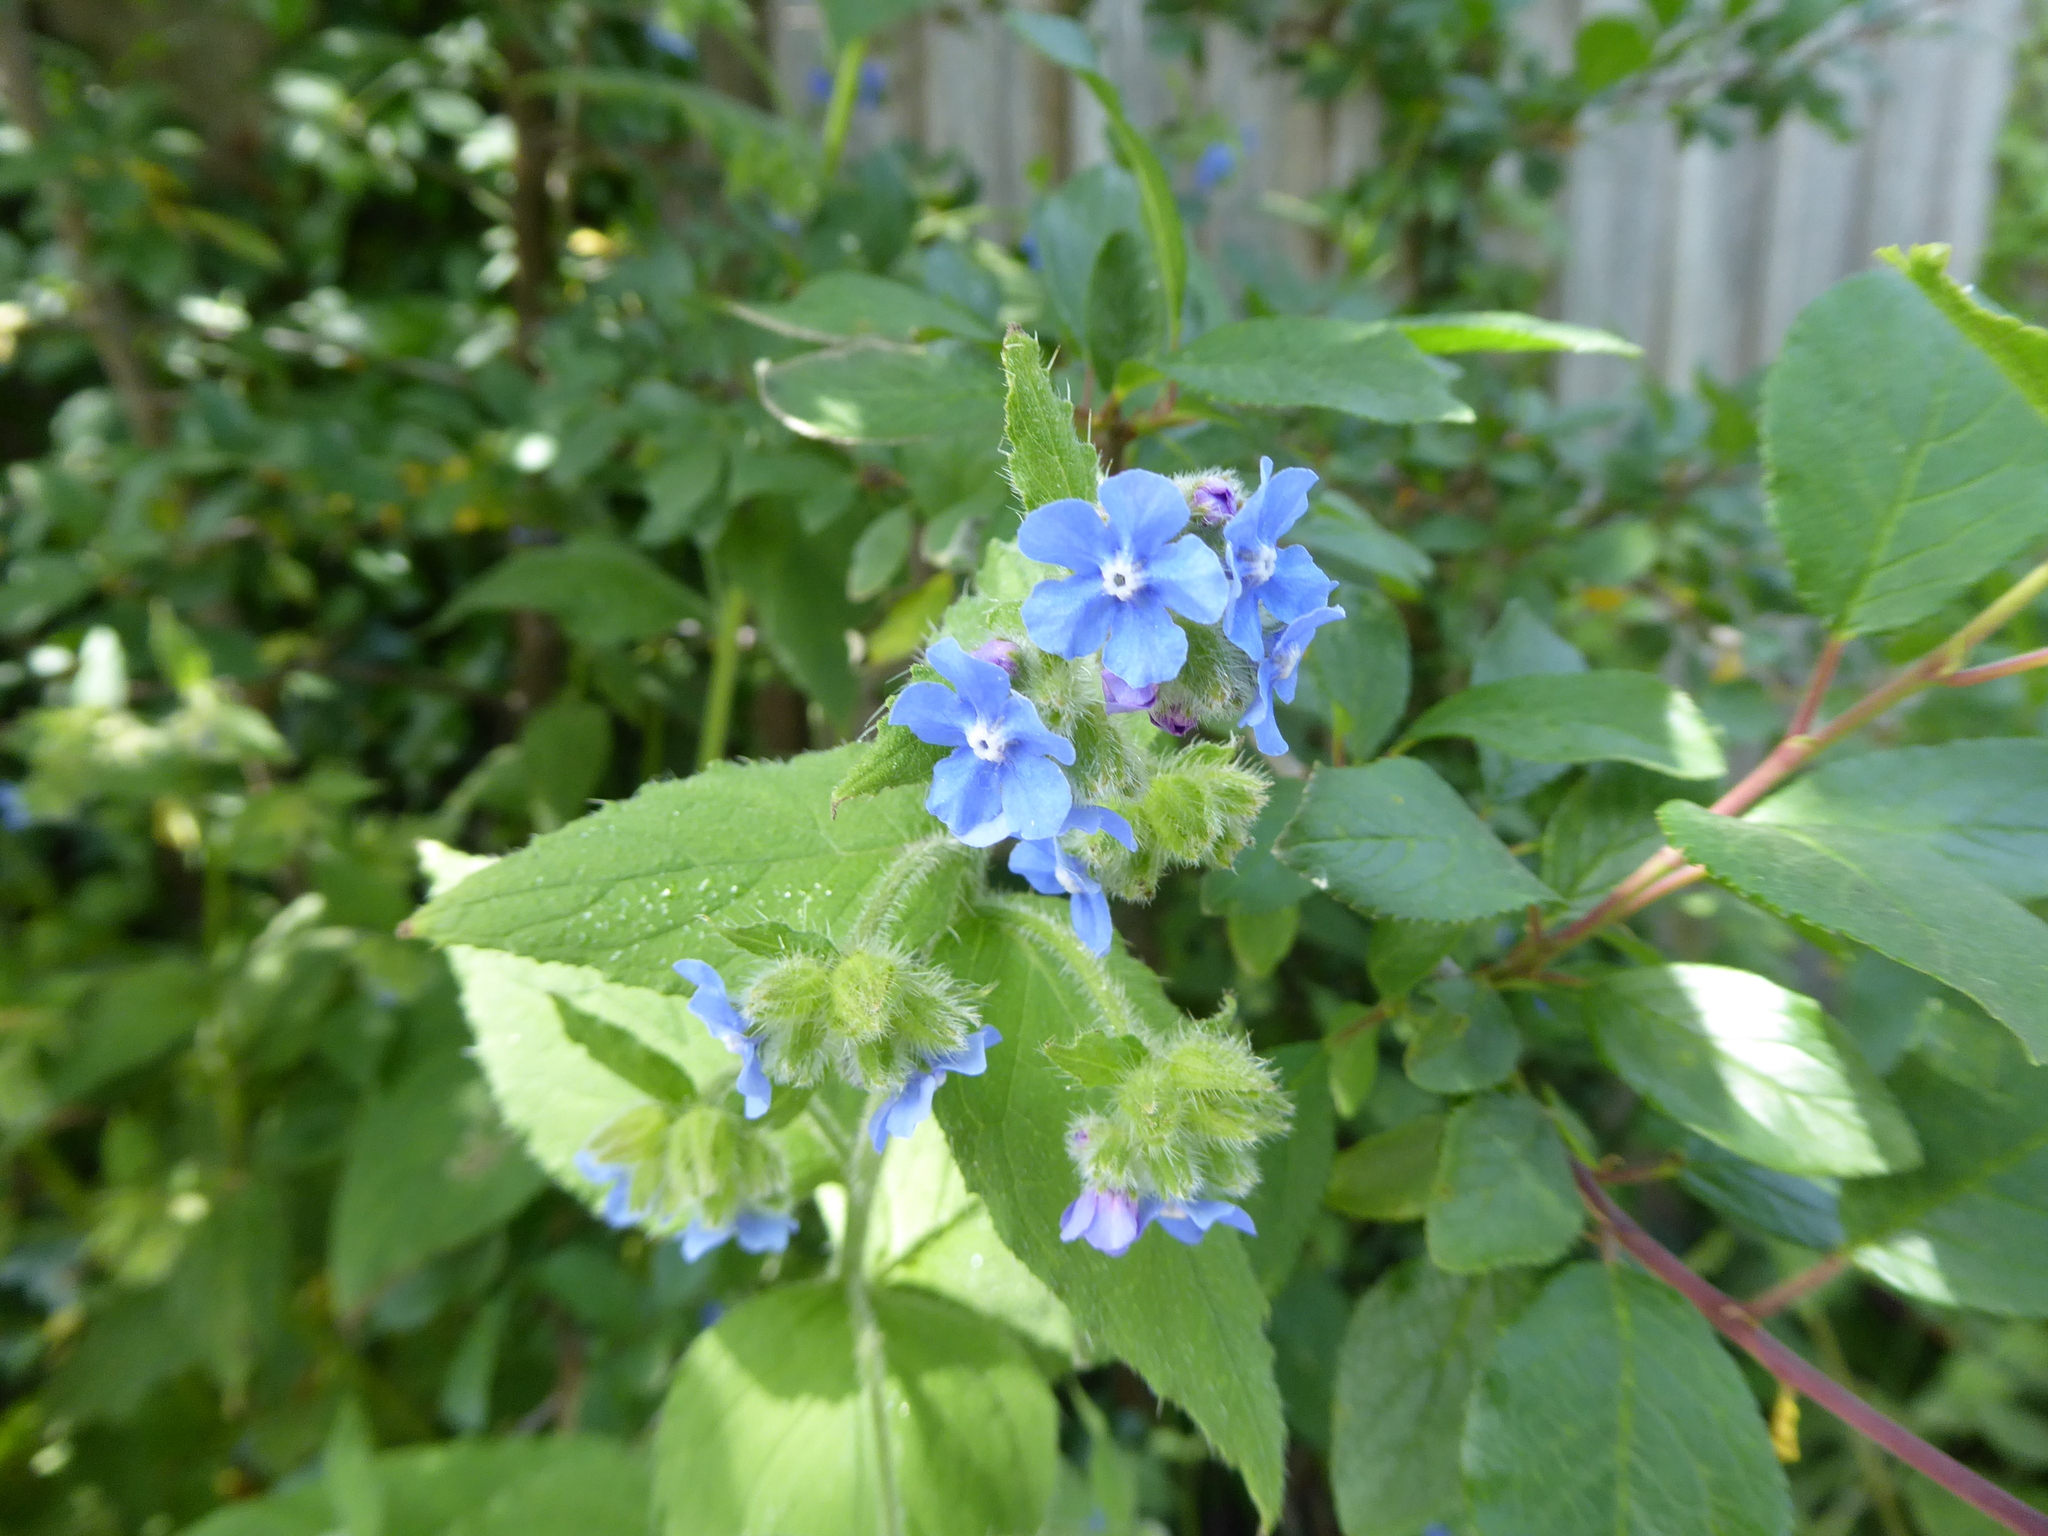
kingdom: Plantae
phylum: Tracheophyta
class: Magnoliopsida
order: Boraginales
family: Boraginaceae
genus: Pentaglottis
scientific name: Pentaglottis sempervirens
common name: Green alkanet
